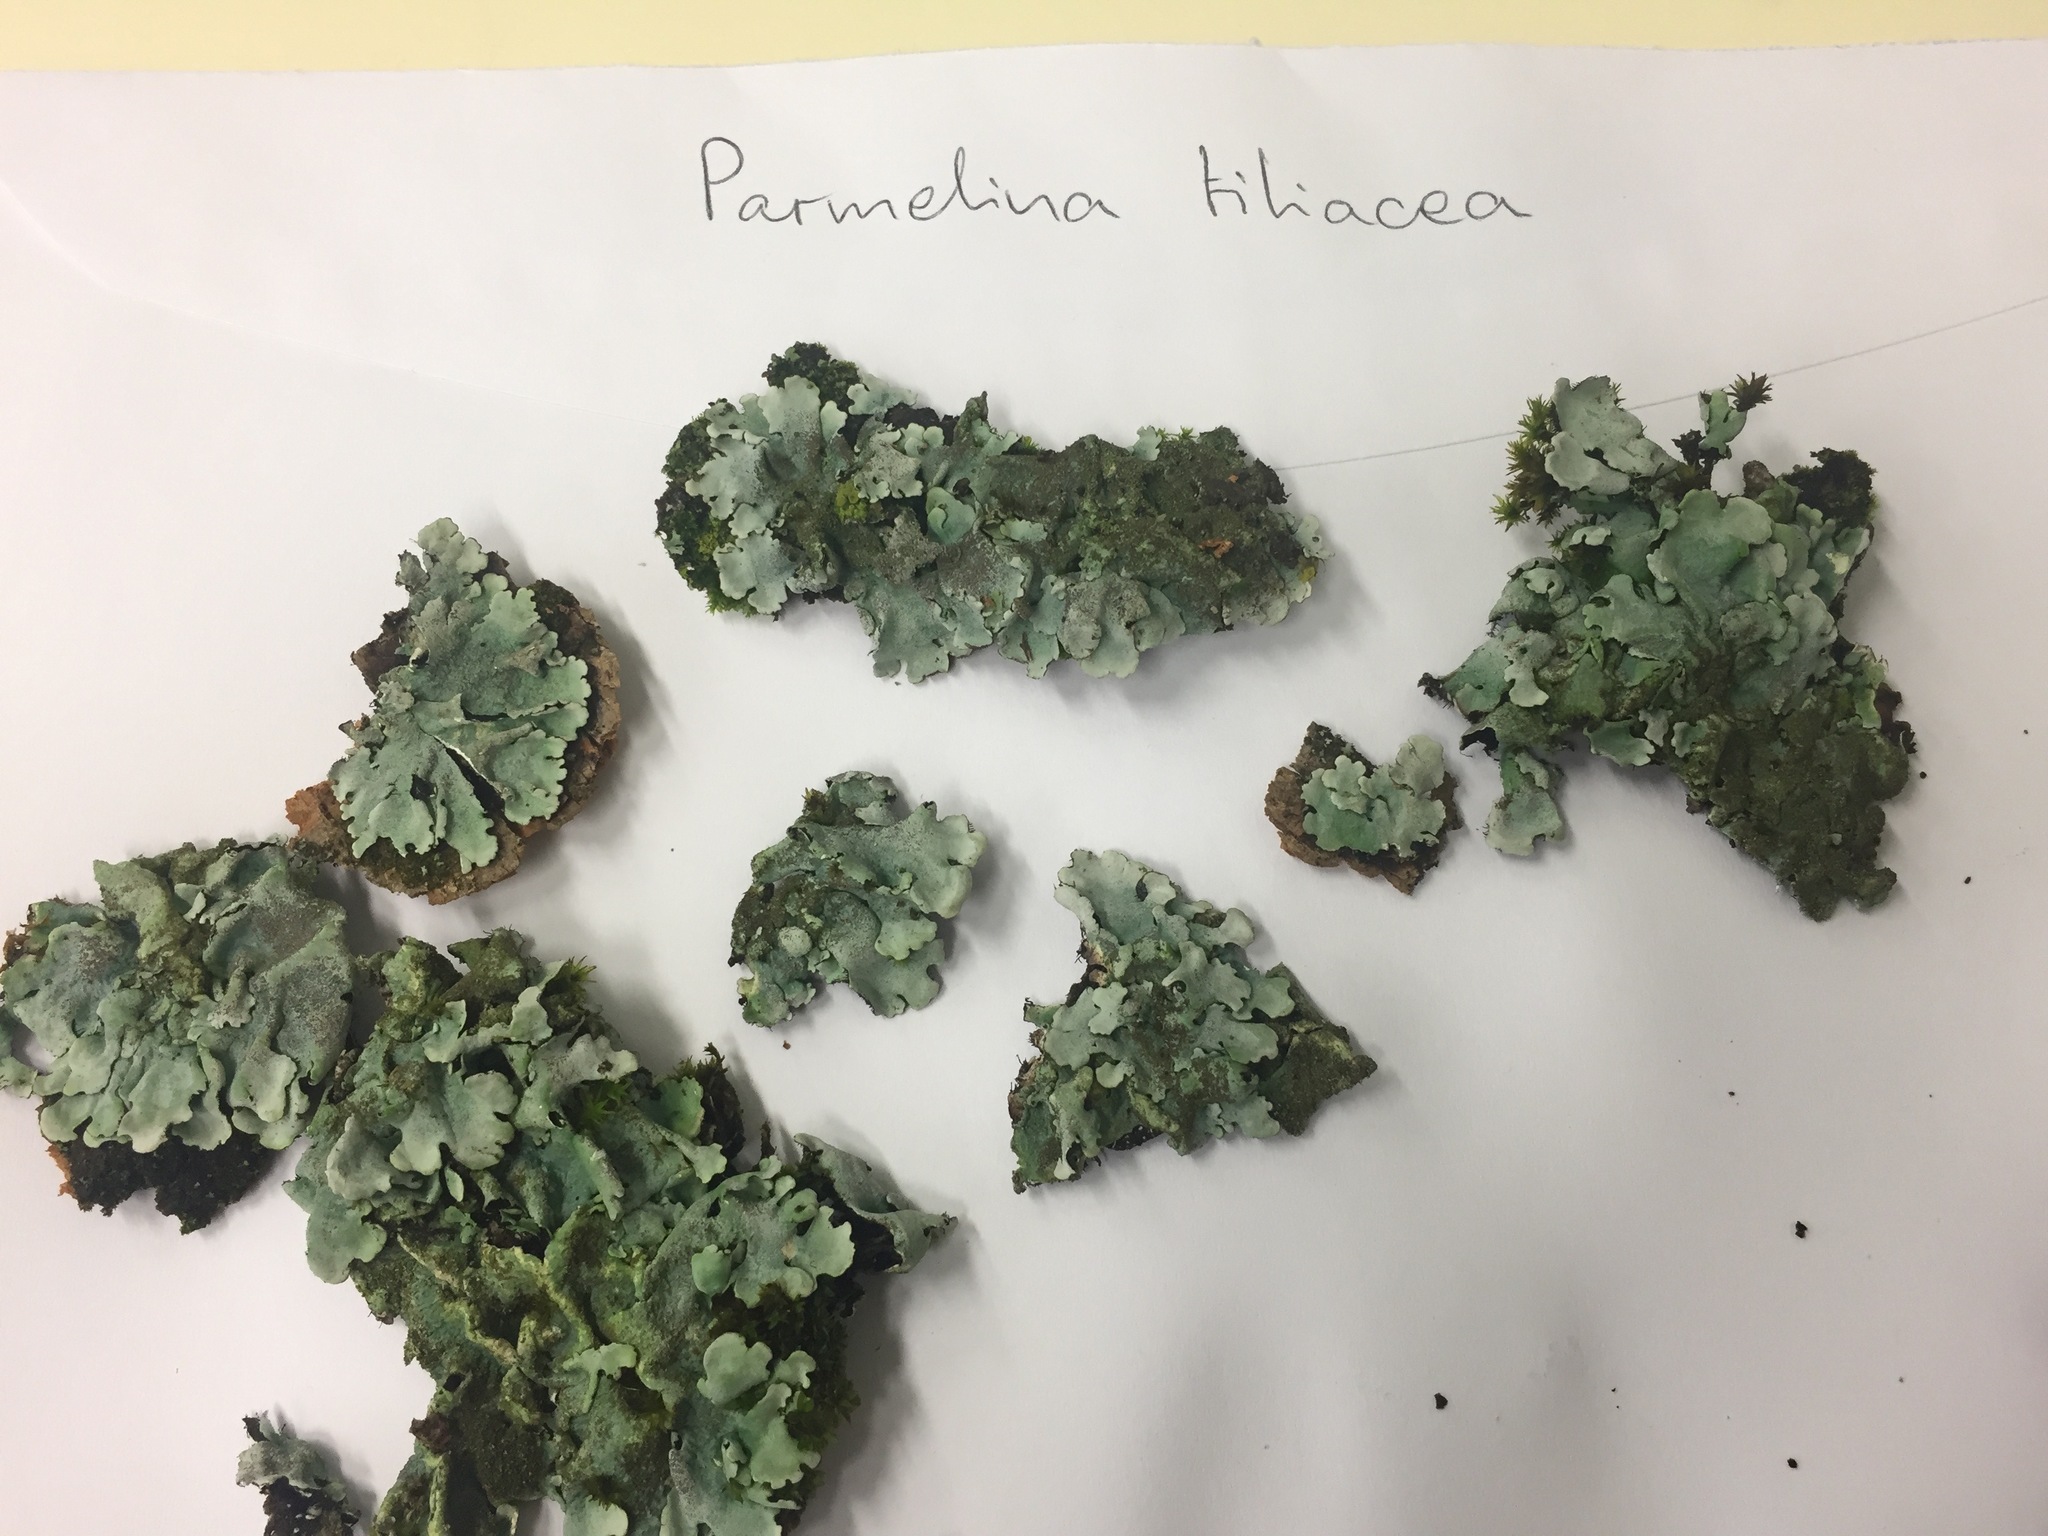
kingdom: Fungi
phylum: Ascomycota
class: Lecanoromycetes
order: Lecanorales
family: Parmeliaceae
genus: Parmelina
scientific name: Parmelina tiliacea
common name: Linden shield lichen
